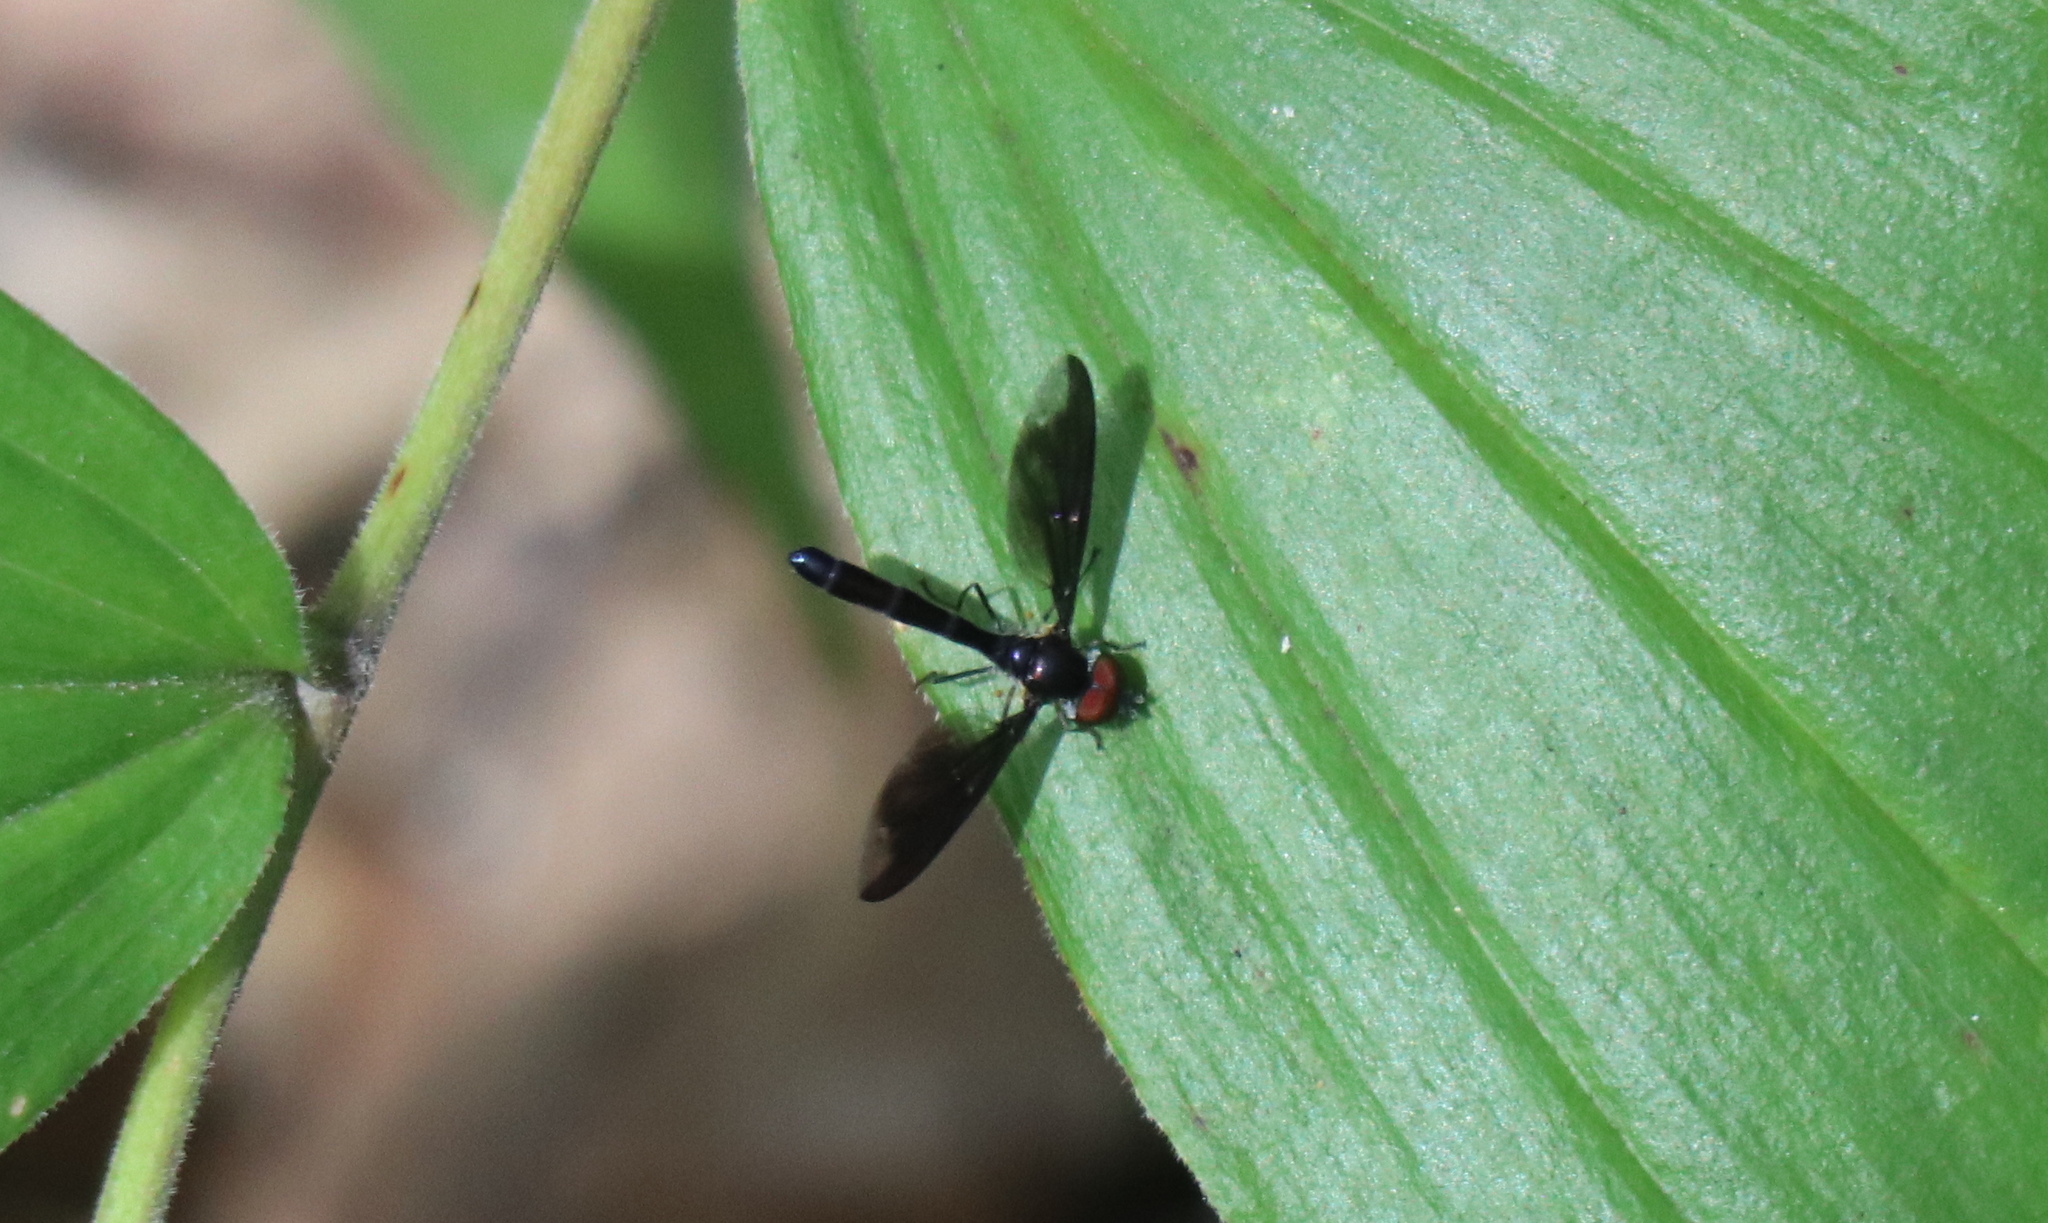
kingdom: Animalia
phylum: Arthropoda
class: Insecta
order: Diptera
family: Syrphidae
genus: Ocyptamus
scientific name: Ocyptamus fuscipennis
